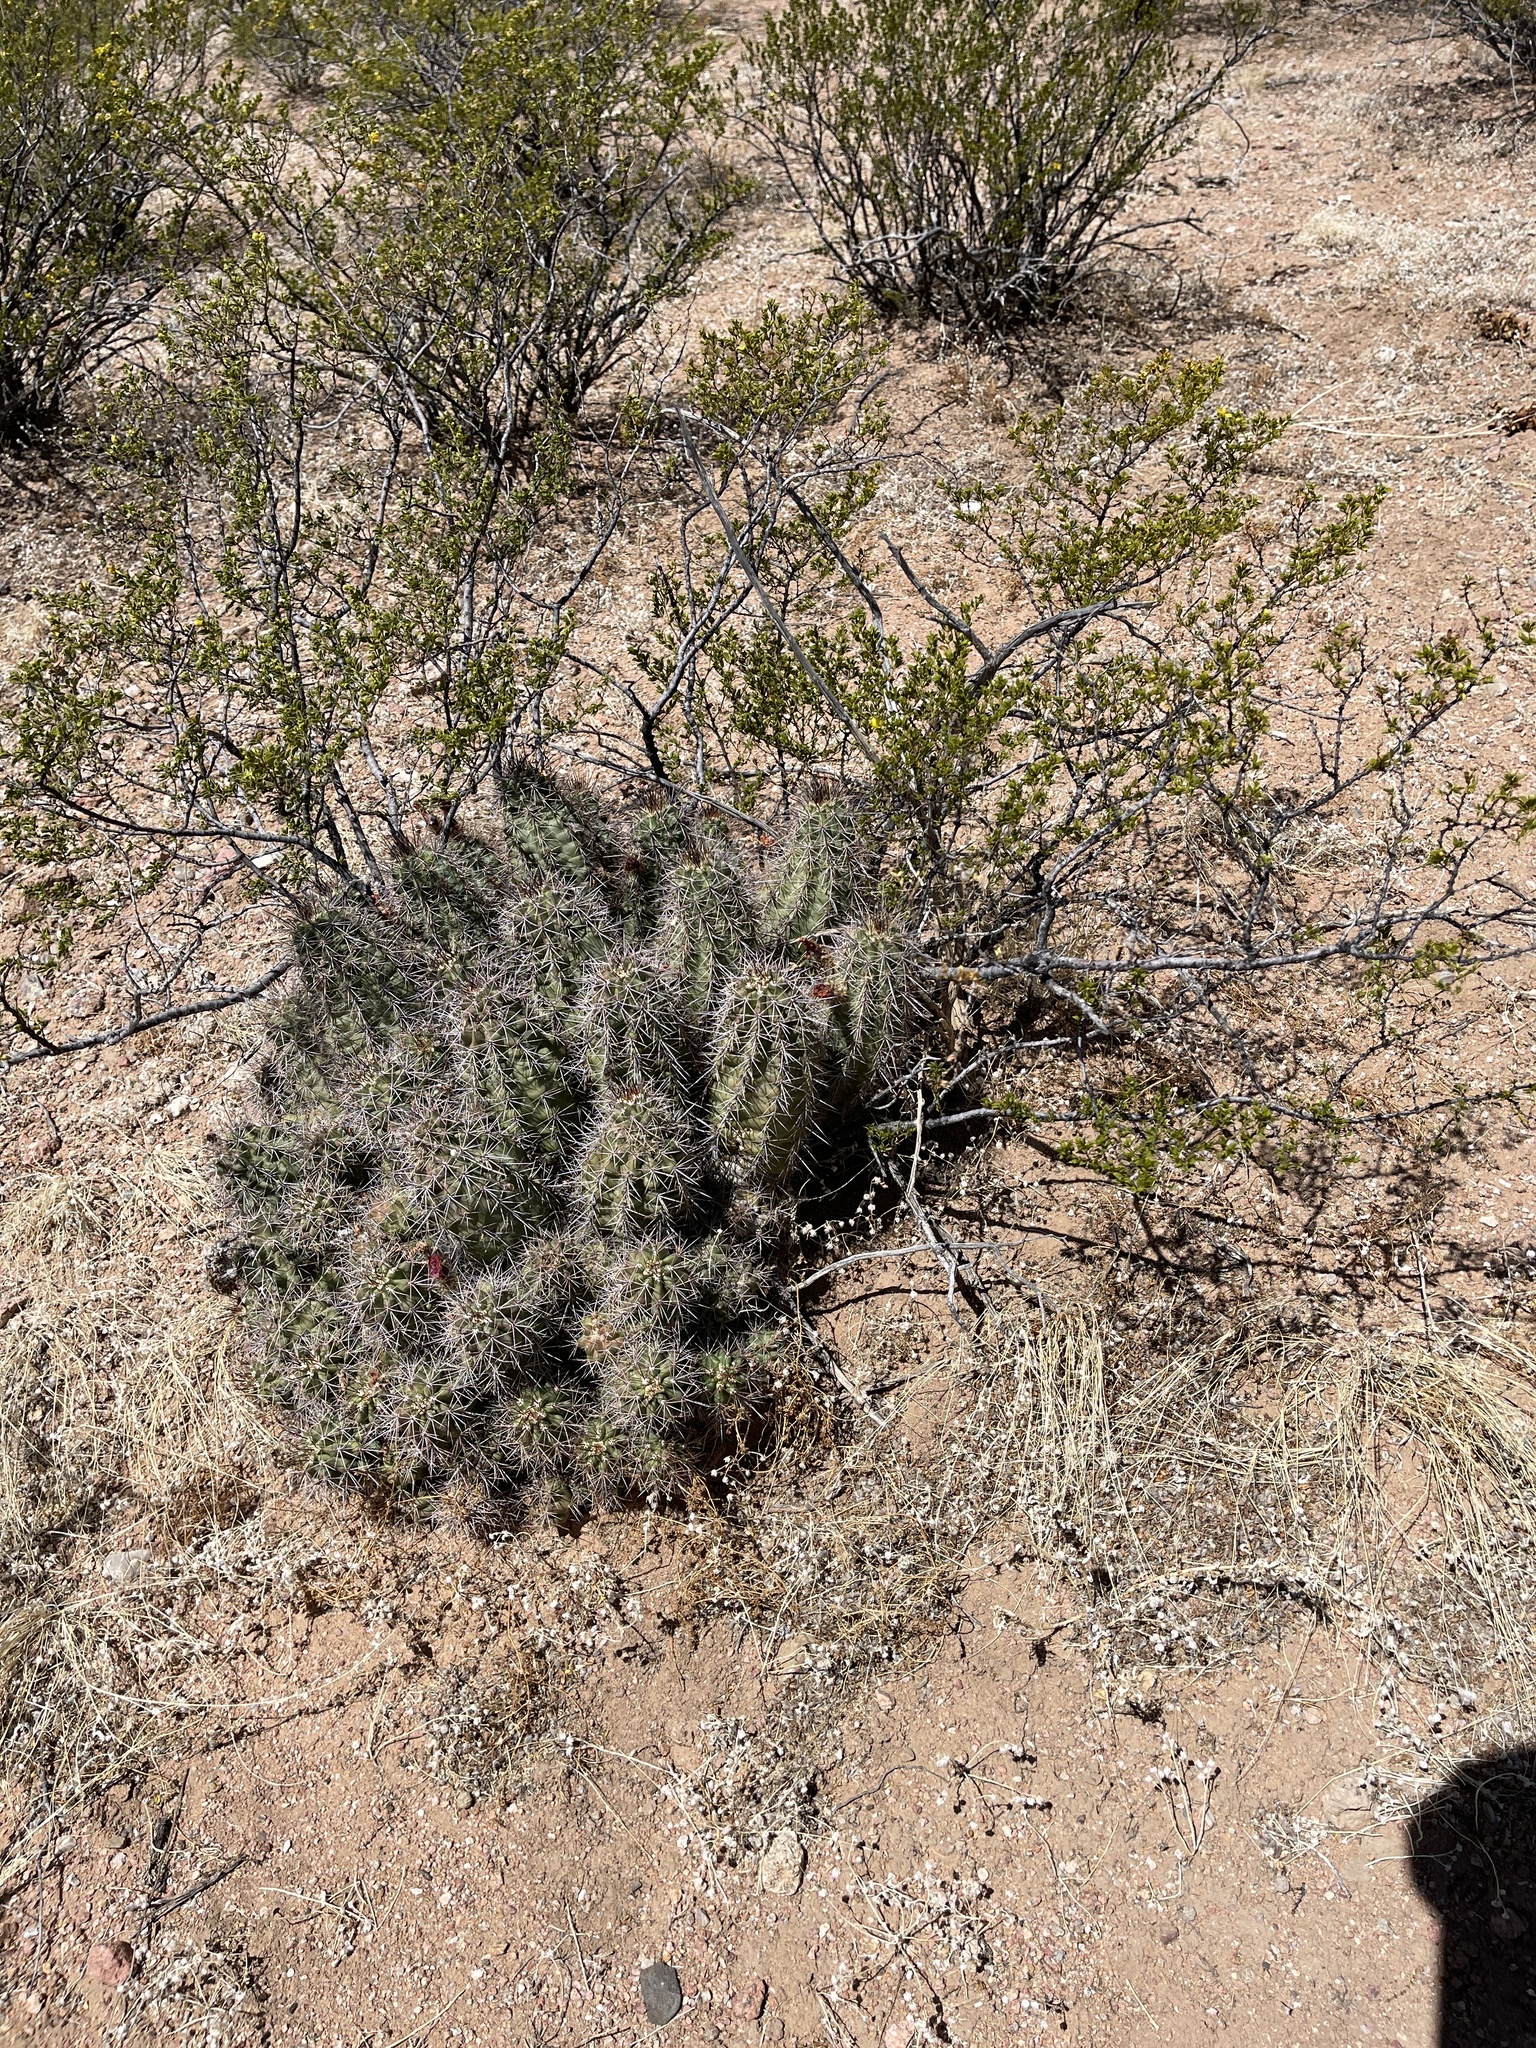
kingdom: Plantae
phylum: Tracheophyta
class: Magnoliopsida
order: Caryophyllales
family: Cactaceae
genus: Echinocereus
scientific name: Echinocereus coccineus
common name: Scarlet hedgehog cactus
